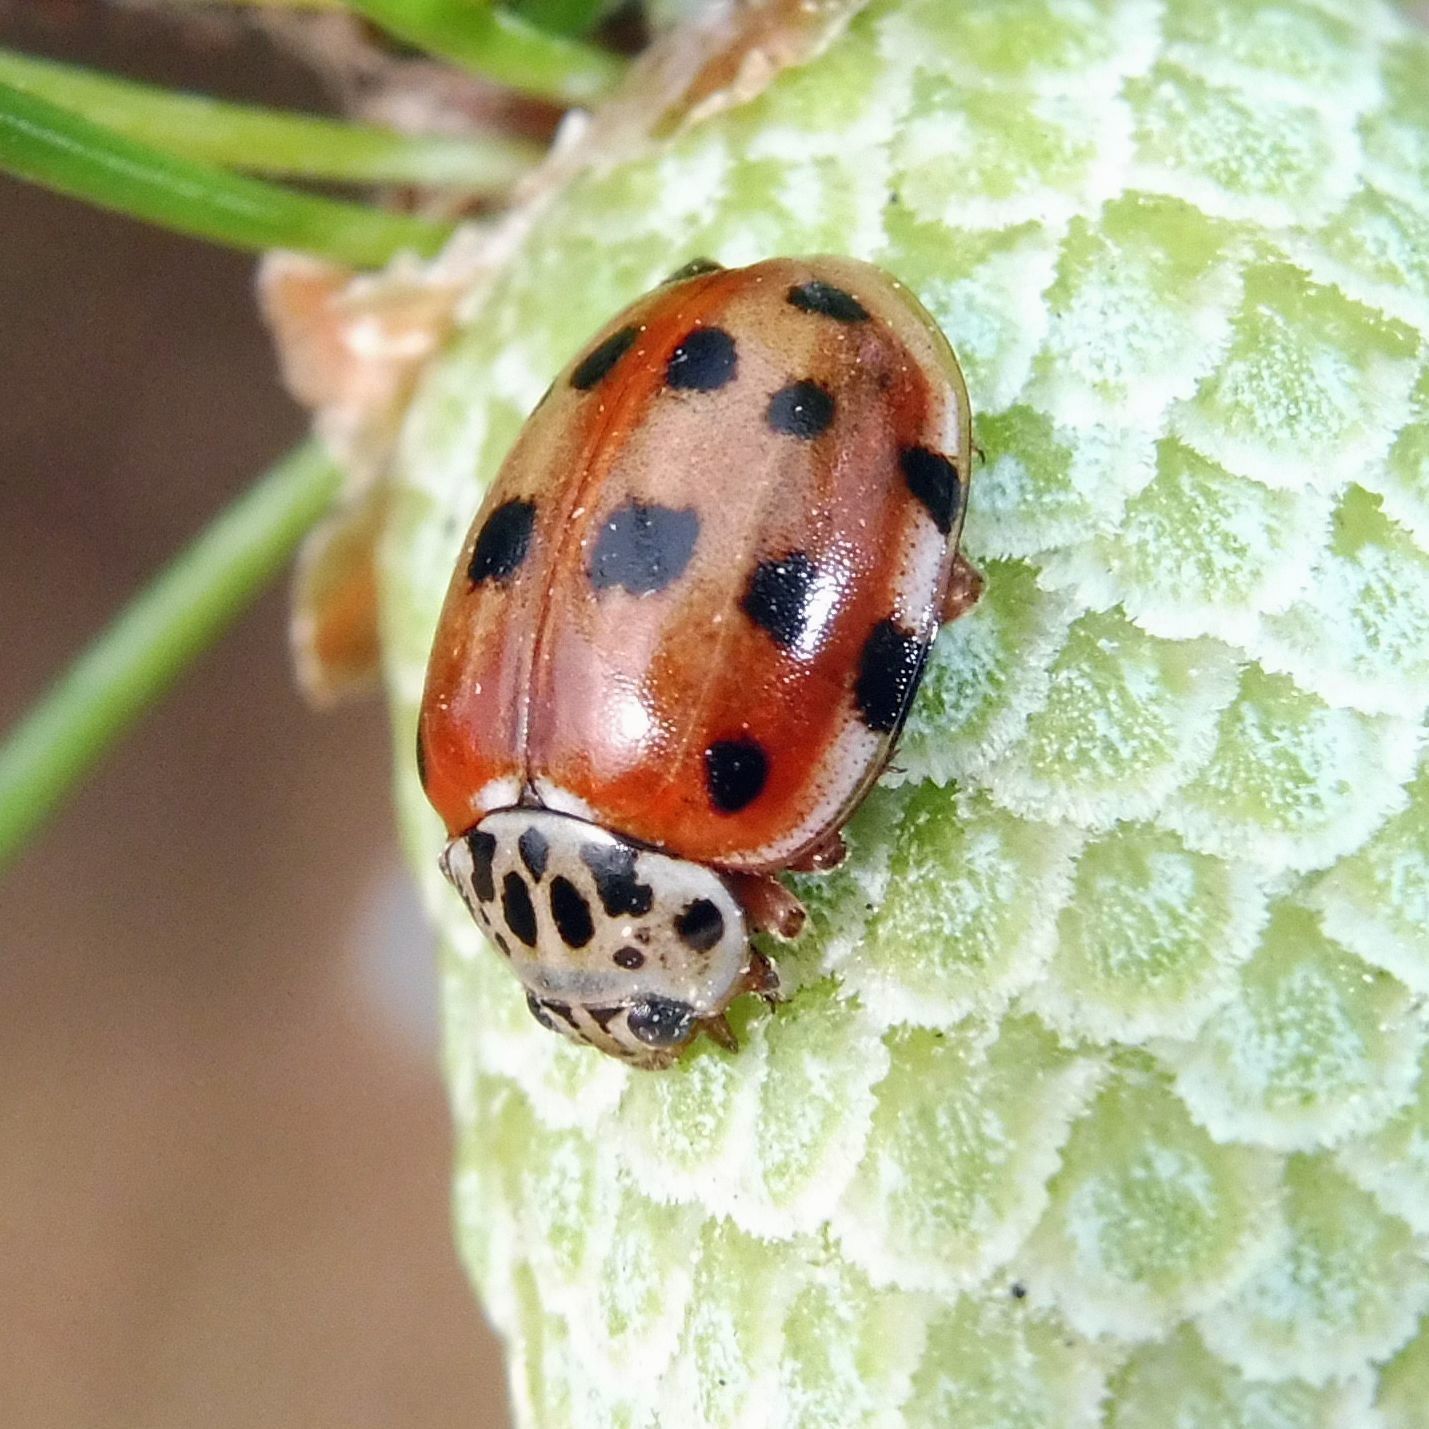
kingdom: Animalia
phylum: Arthropoda
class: Insecta
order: Coleoptera
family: Coccinellidae
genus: Harmonia
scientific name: Harmonia quadripunctata
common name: Cream-streaked ladybird
